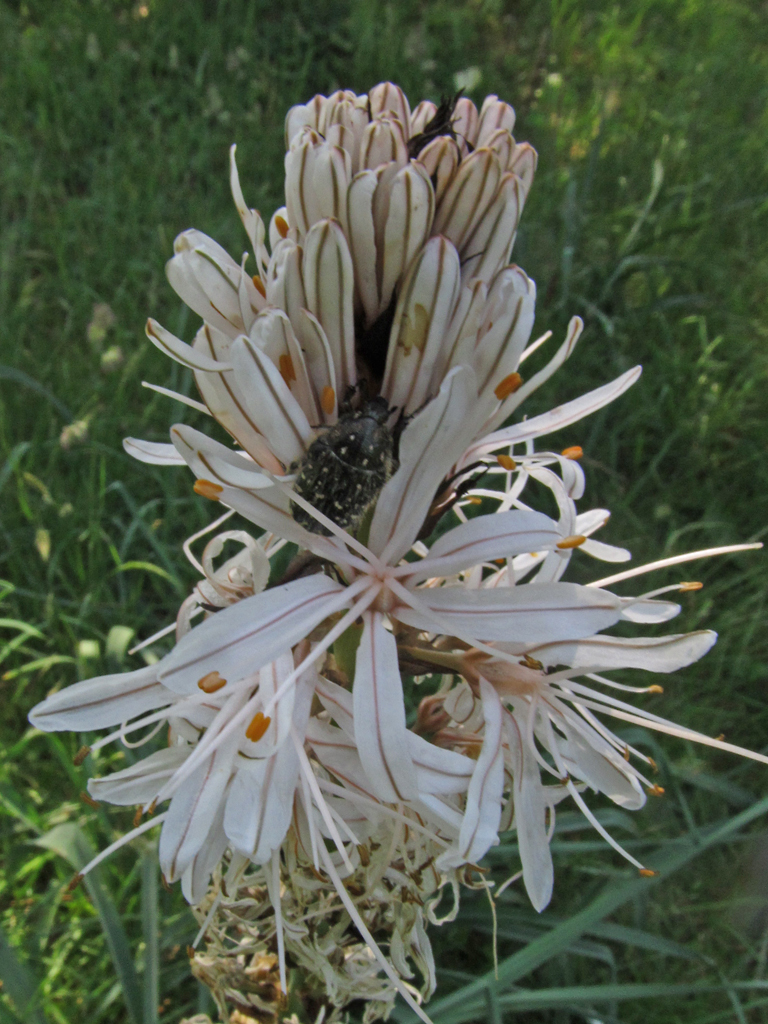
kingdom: Plantae
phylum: Tracheophyta
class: Liliopsida
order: Asparagales
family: Asphodelaceae
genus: Asphodelus
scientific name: Asphodelus albus
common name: White asphodel
